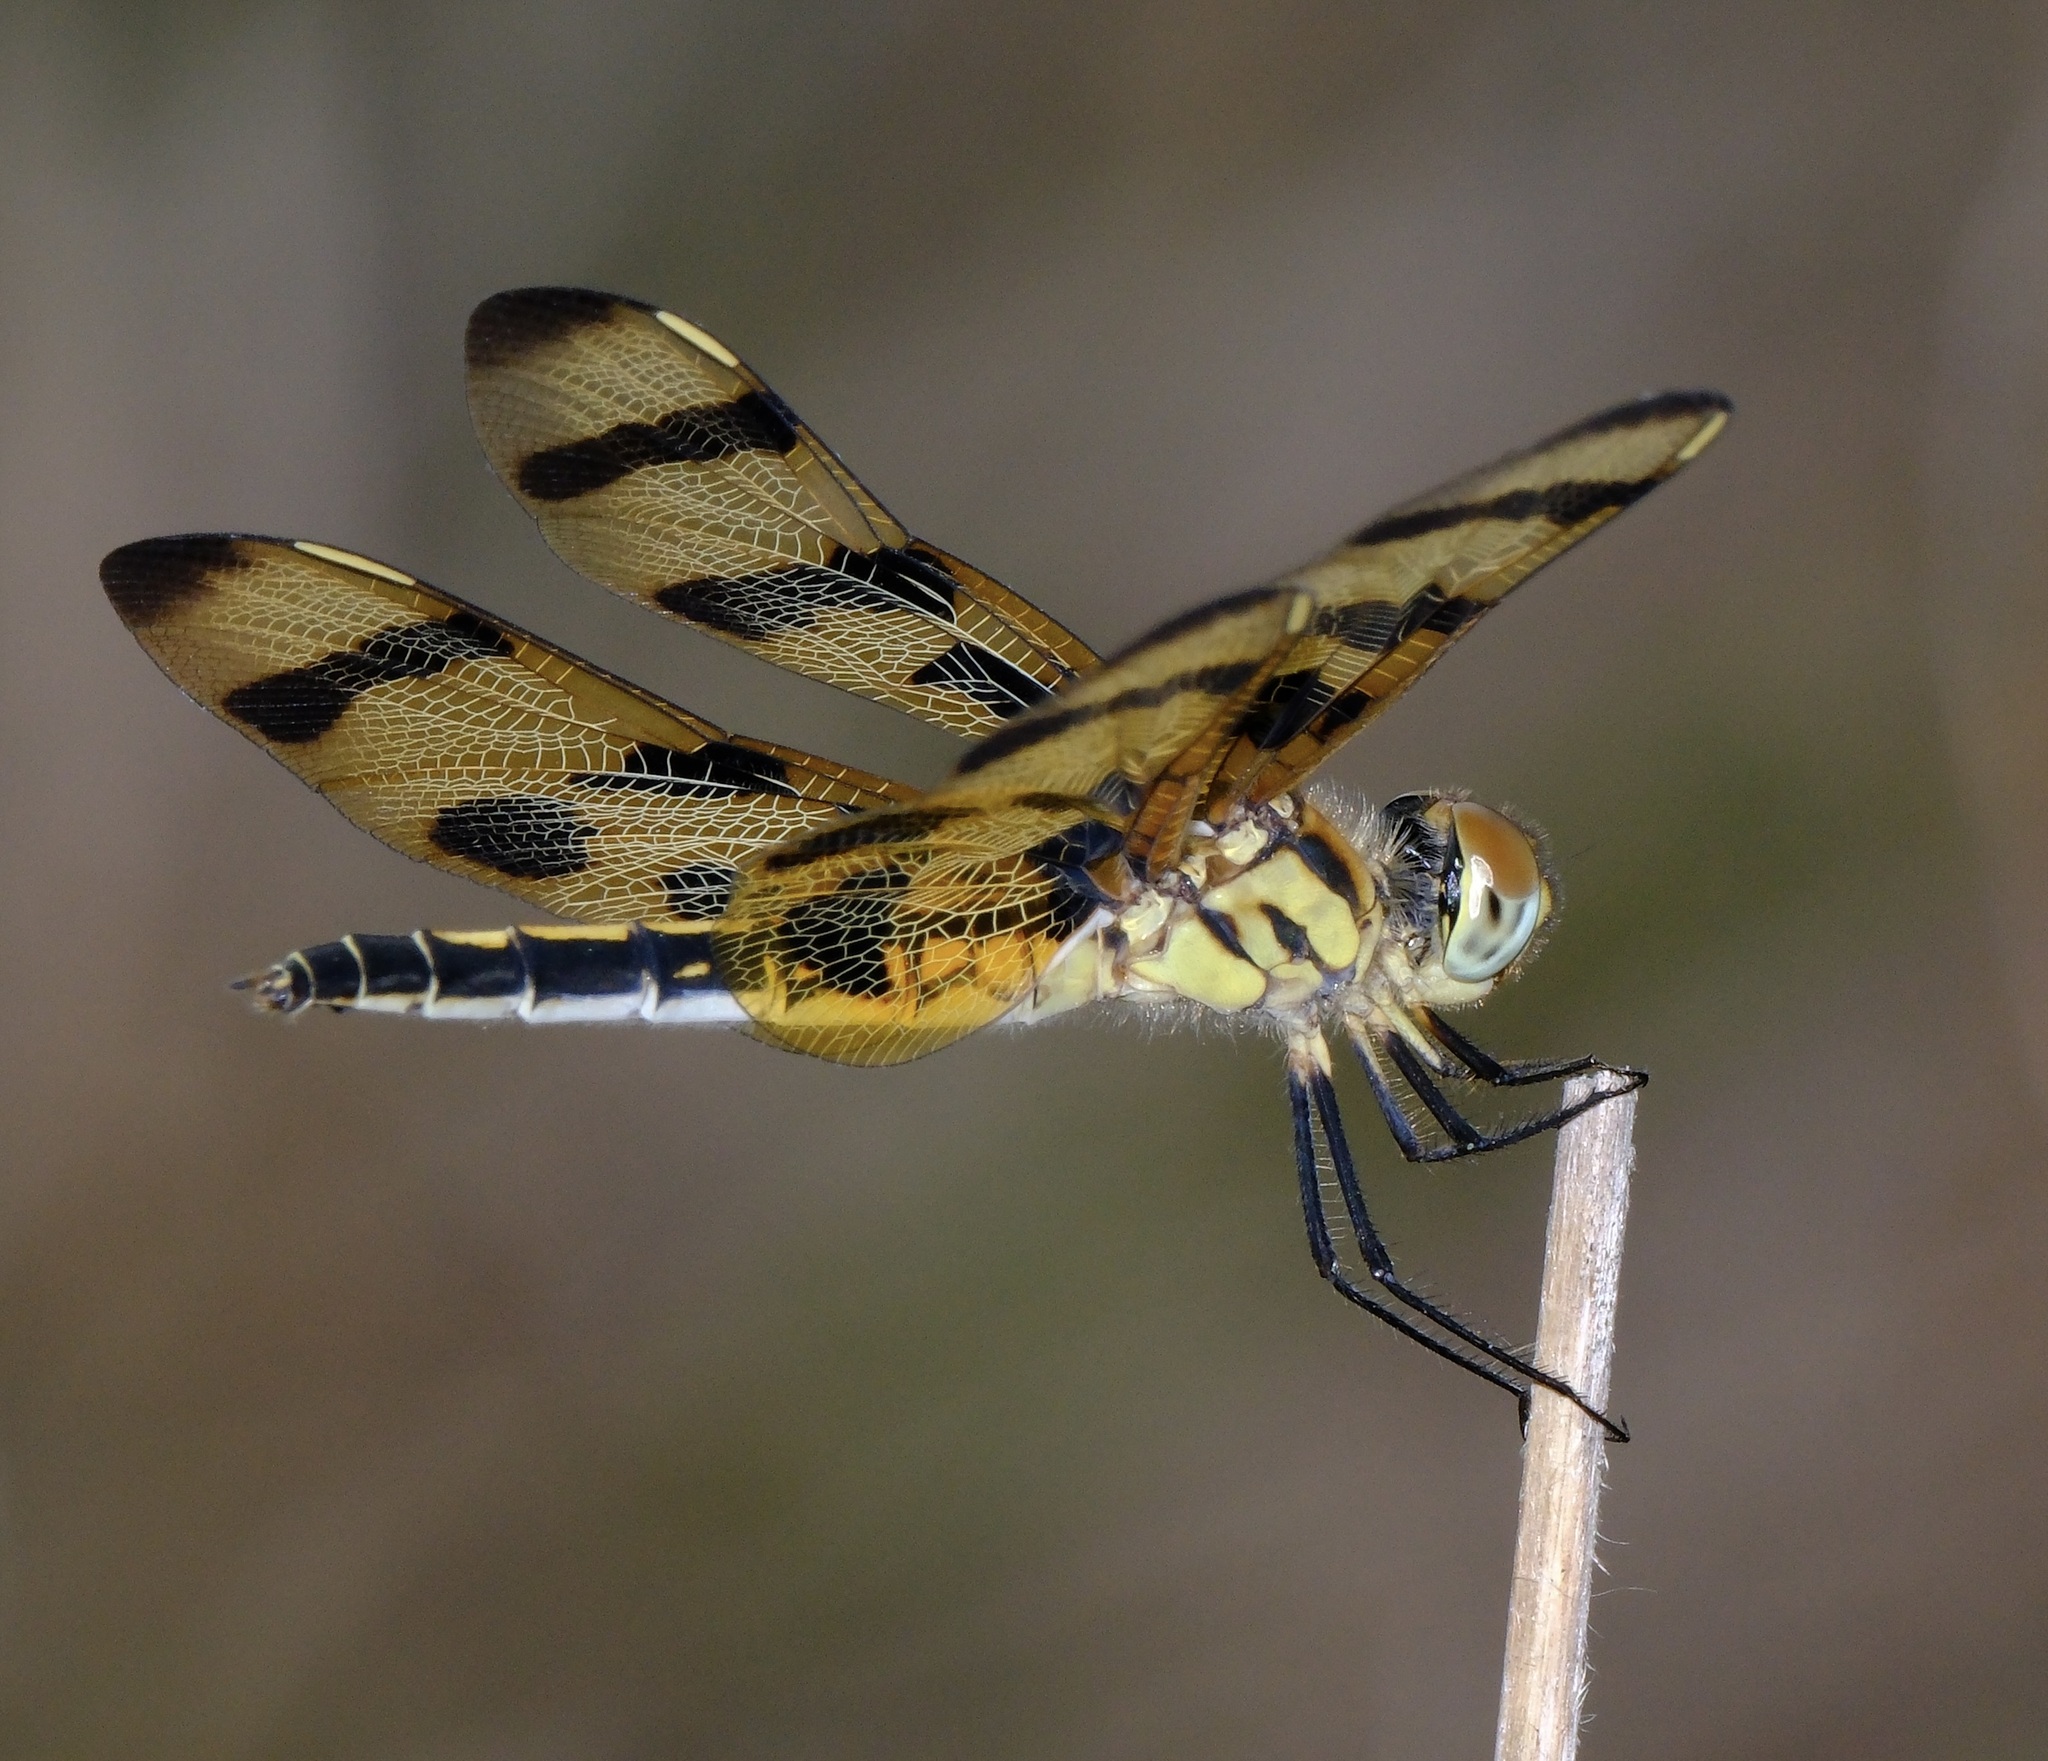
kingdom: Animalia
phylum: Arthropoda
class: Insecta
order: Odonata
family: Libellulidae
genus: Celithemis
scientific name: Celithemis eponina
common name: Halloween pennant
